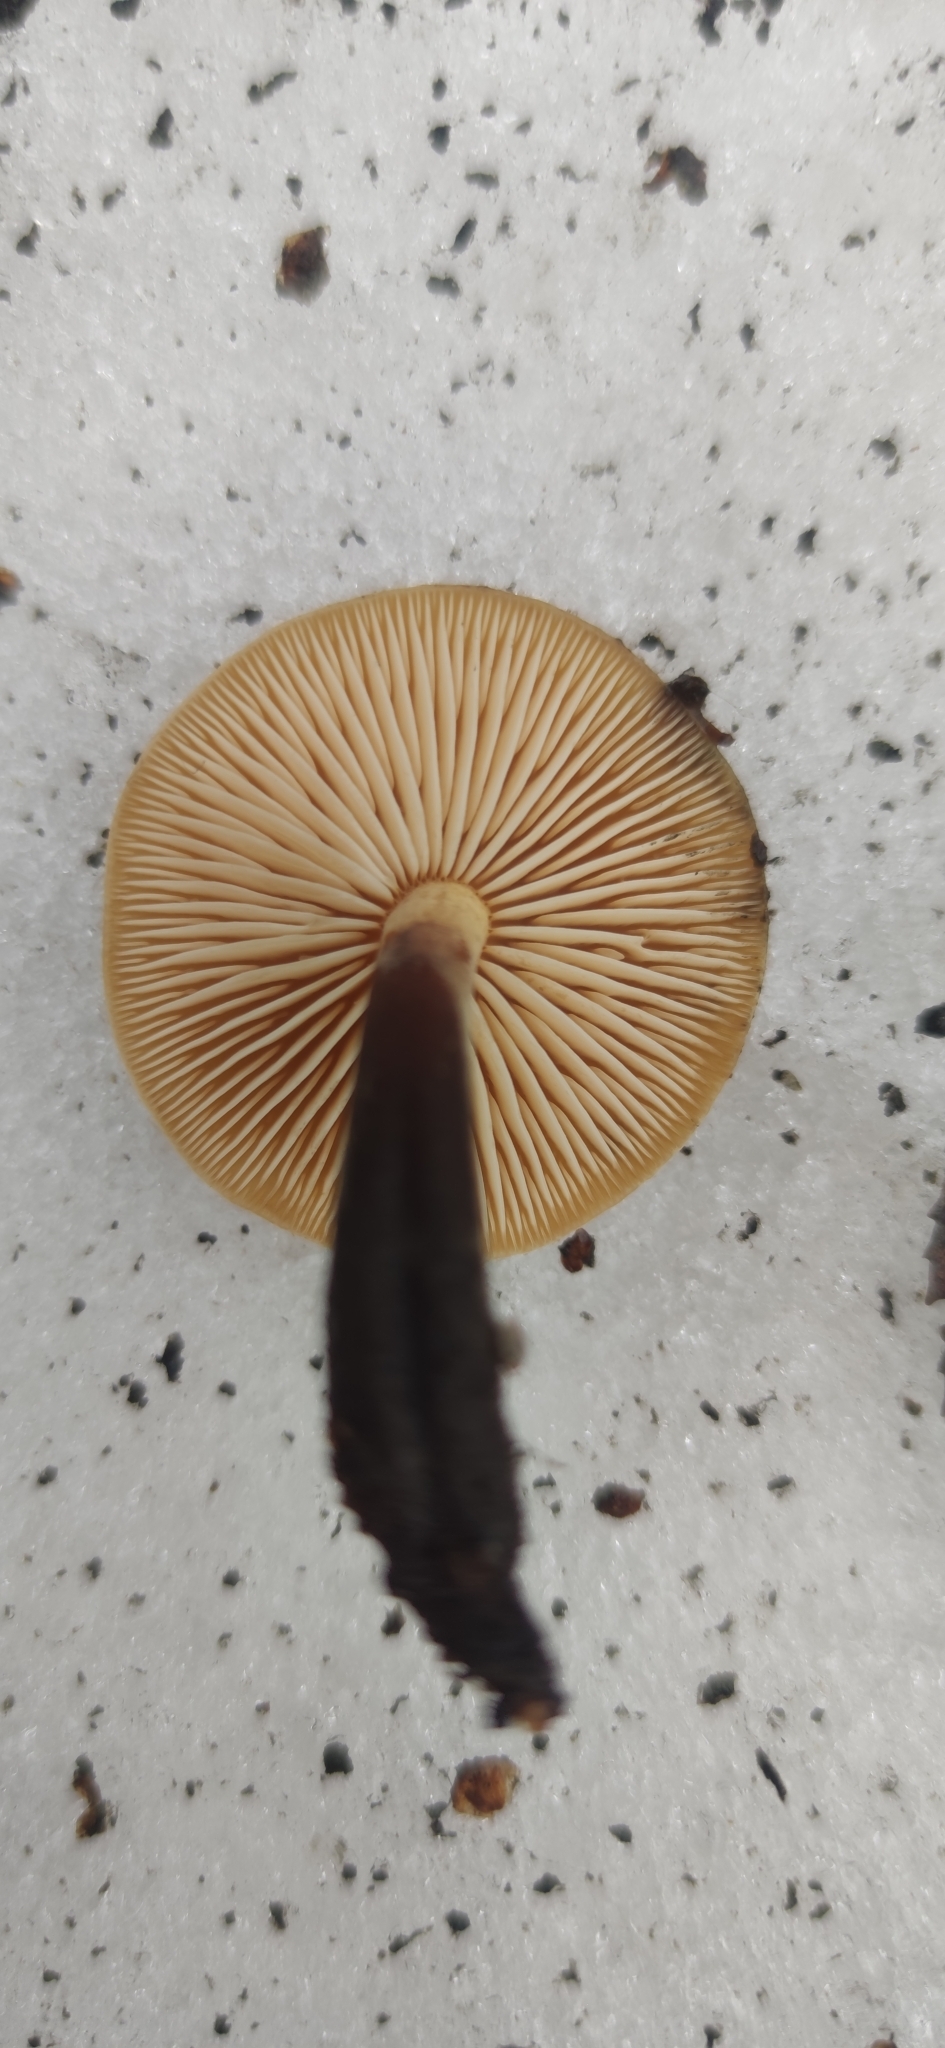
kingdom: Fungi
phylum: Basidiomycota
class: Agaricomycetes
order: Agaricales
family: Physalacriaceae
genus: Flammulina
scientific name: Flammulina
